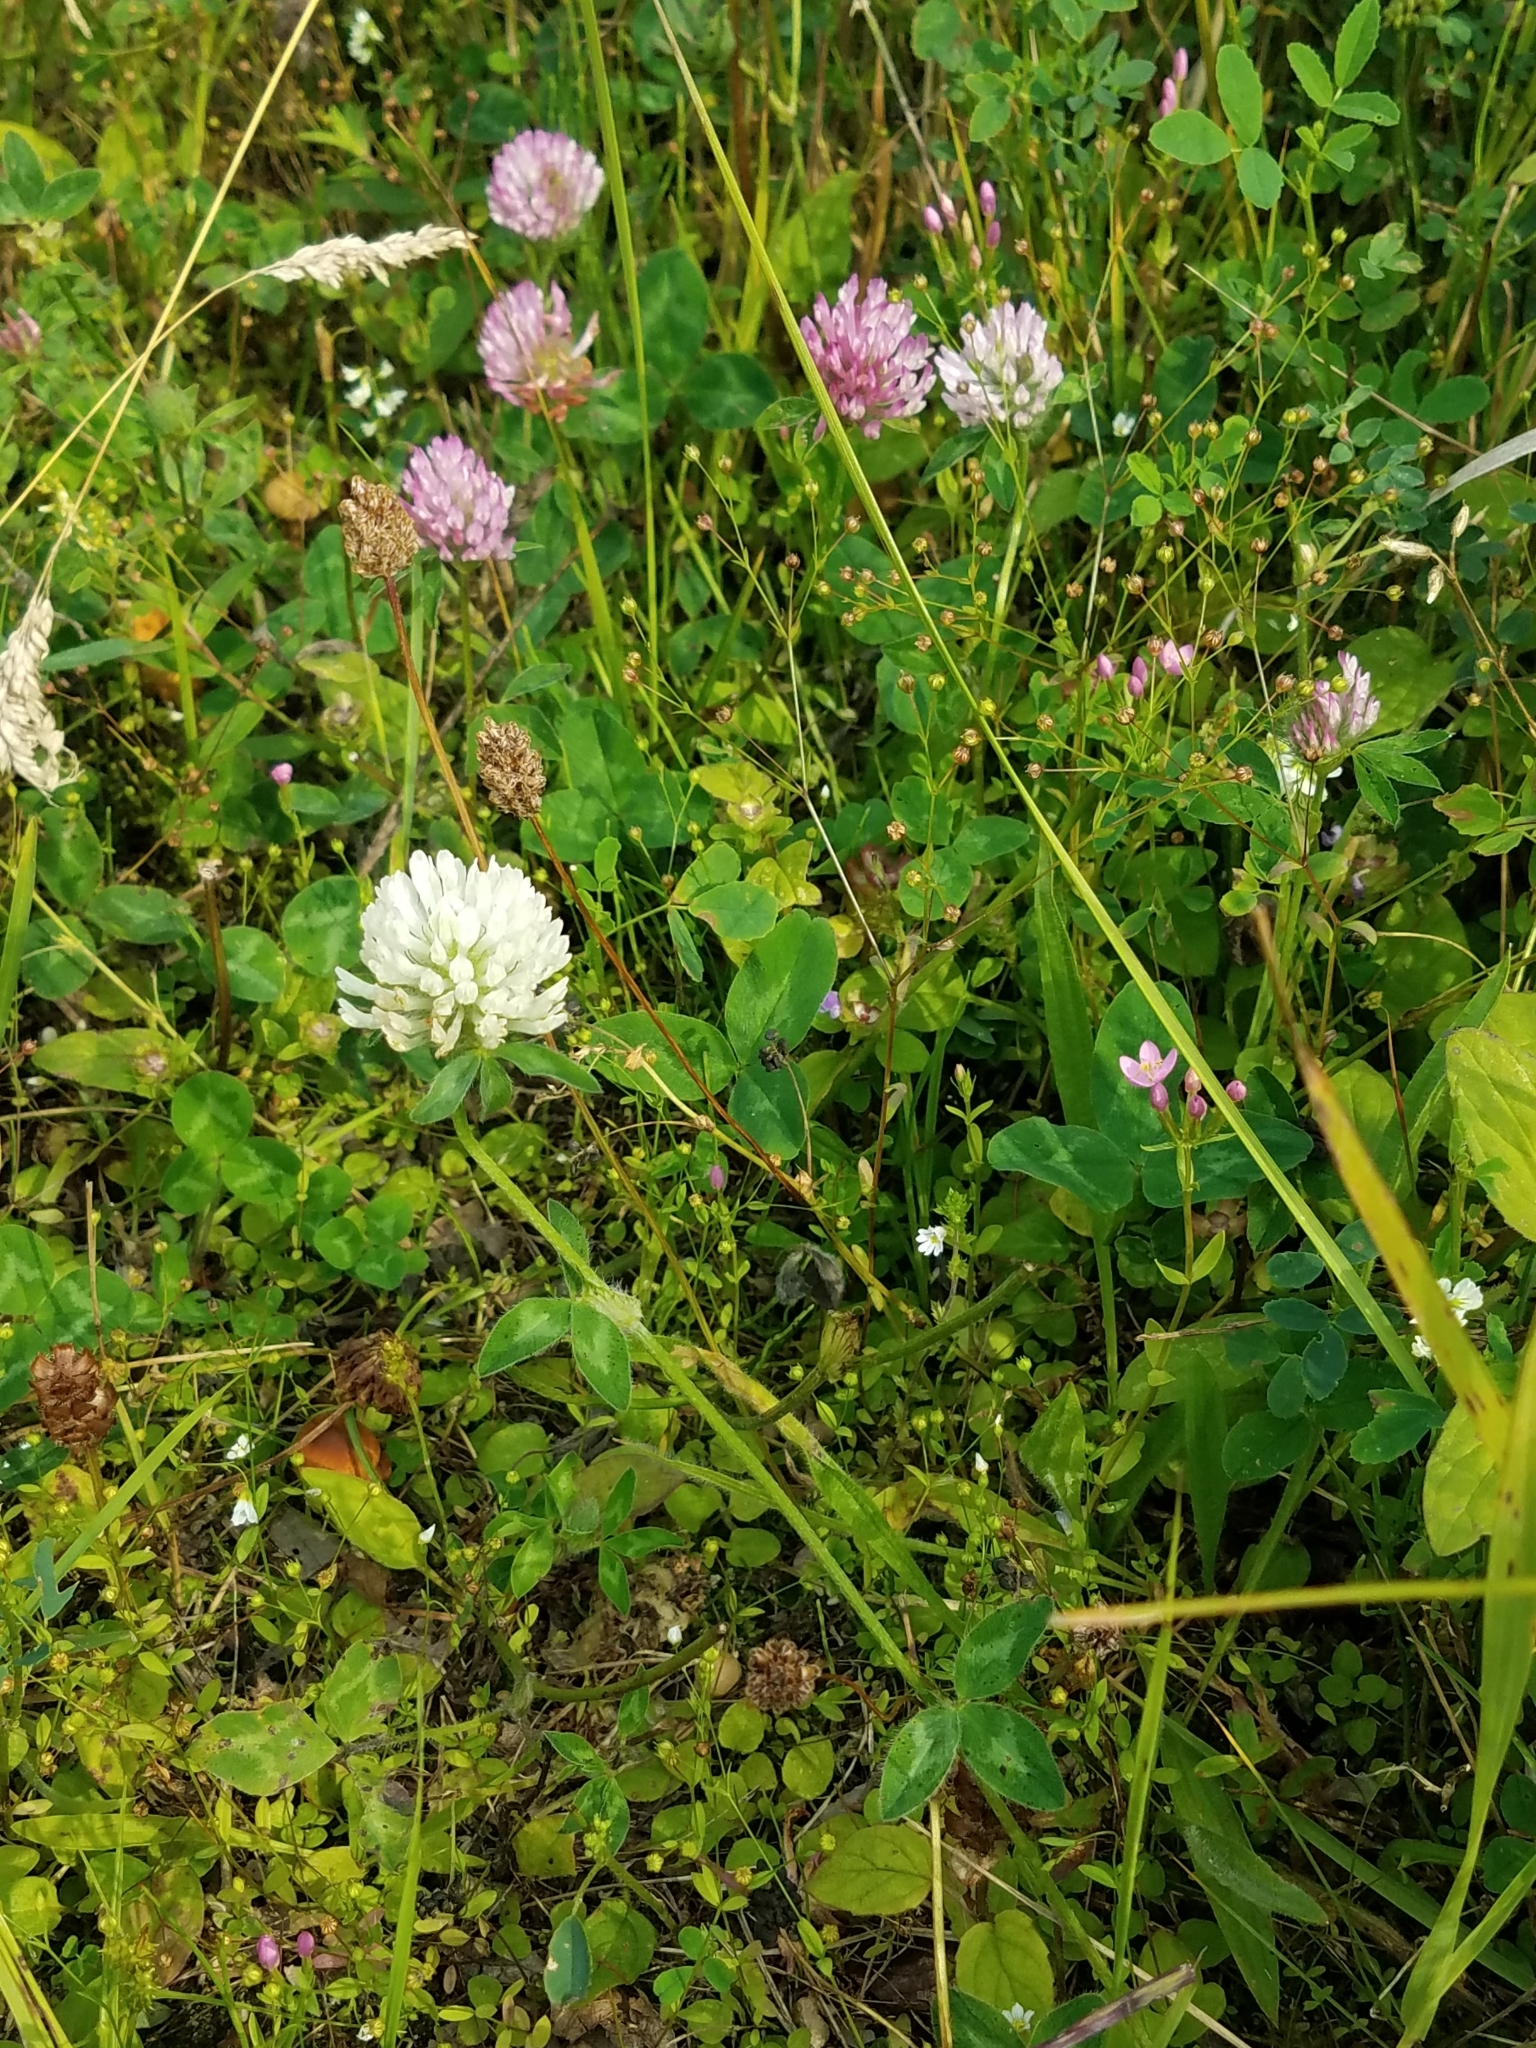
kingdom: Plantae
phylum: Tracheophyta
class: Magnoliopsida
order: Fabales
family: Fabaceae
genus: Trifolium
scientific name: Trifolium pratense
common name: Red clover
